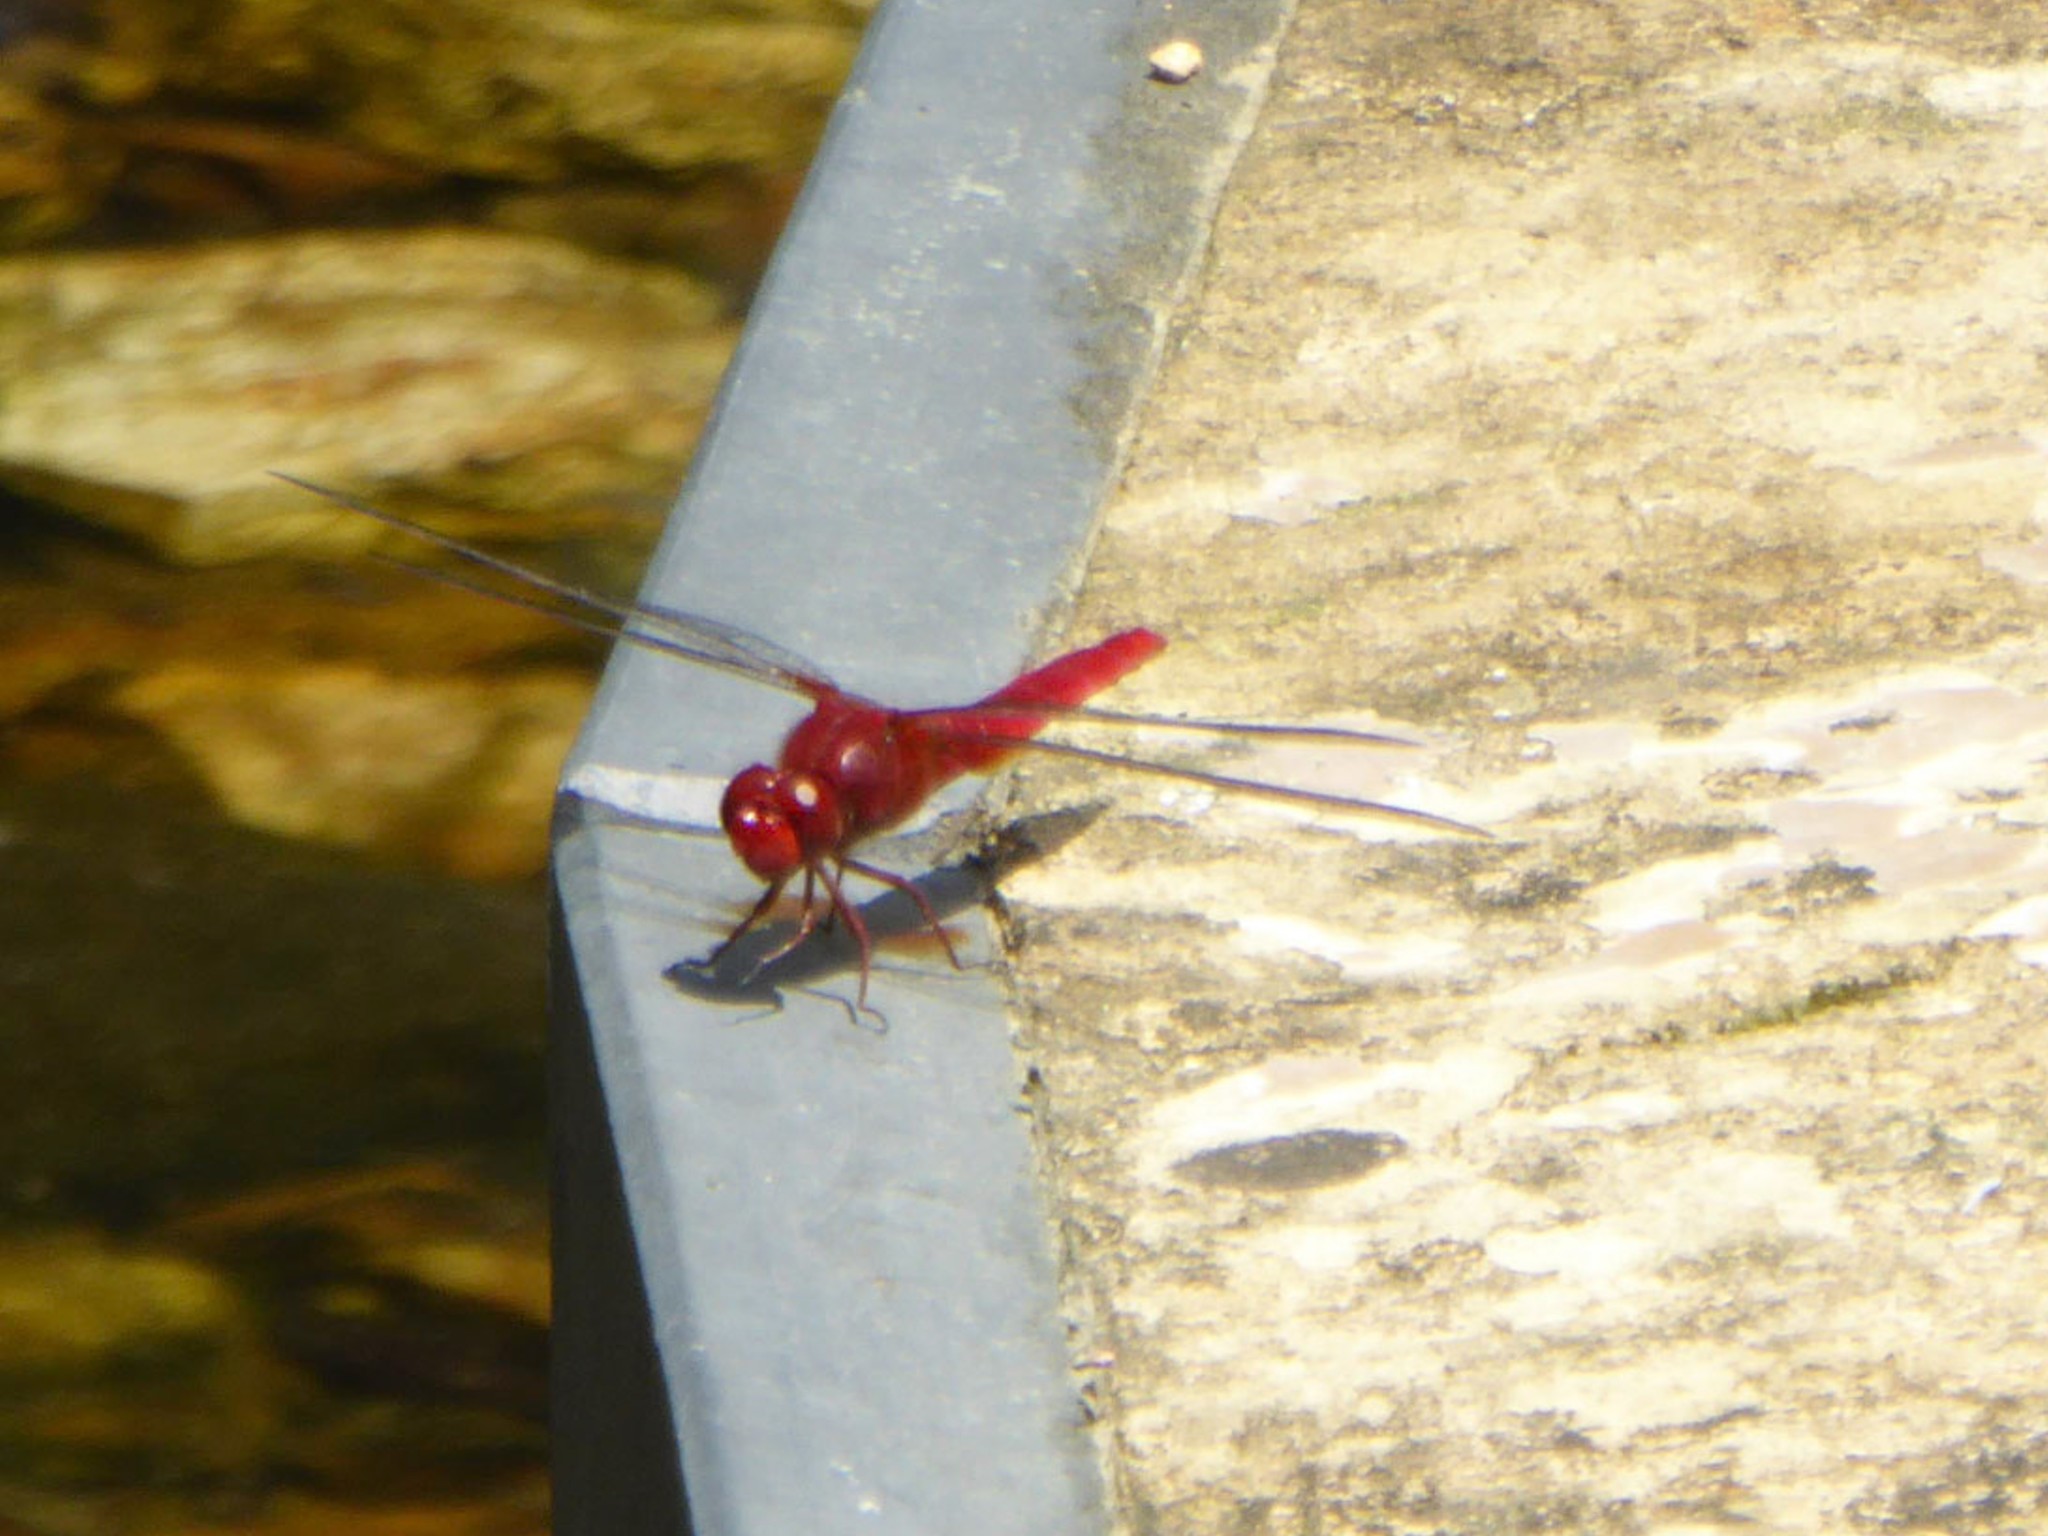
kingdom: Animalia
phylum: Arthropoda
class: Insecta
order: Odonata
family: Libellulidae
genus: Crocothemis
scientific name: Crocothemis servilia
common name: Scarlet skimmer
